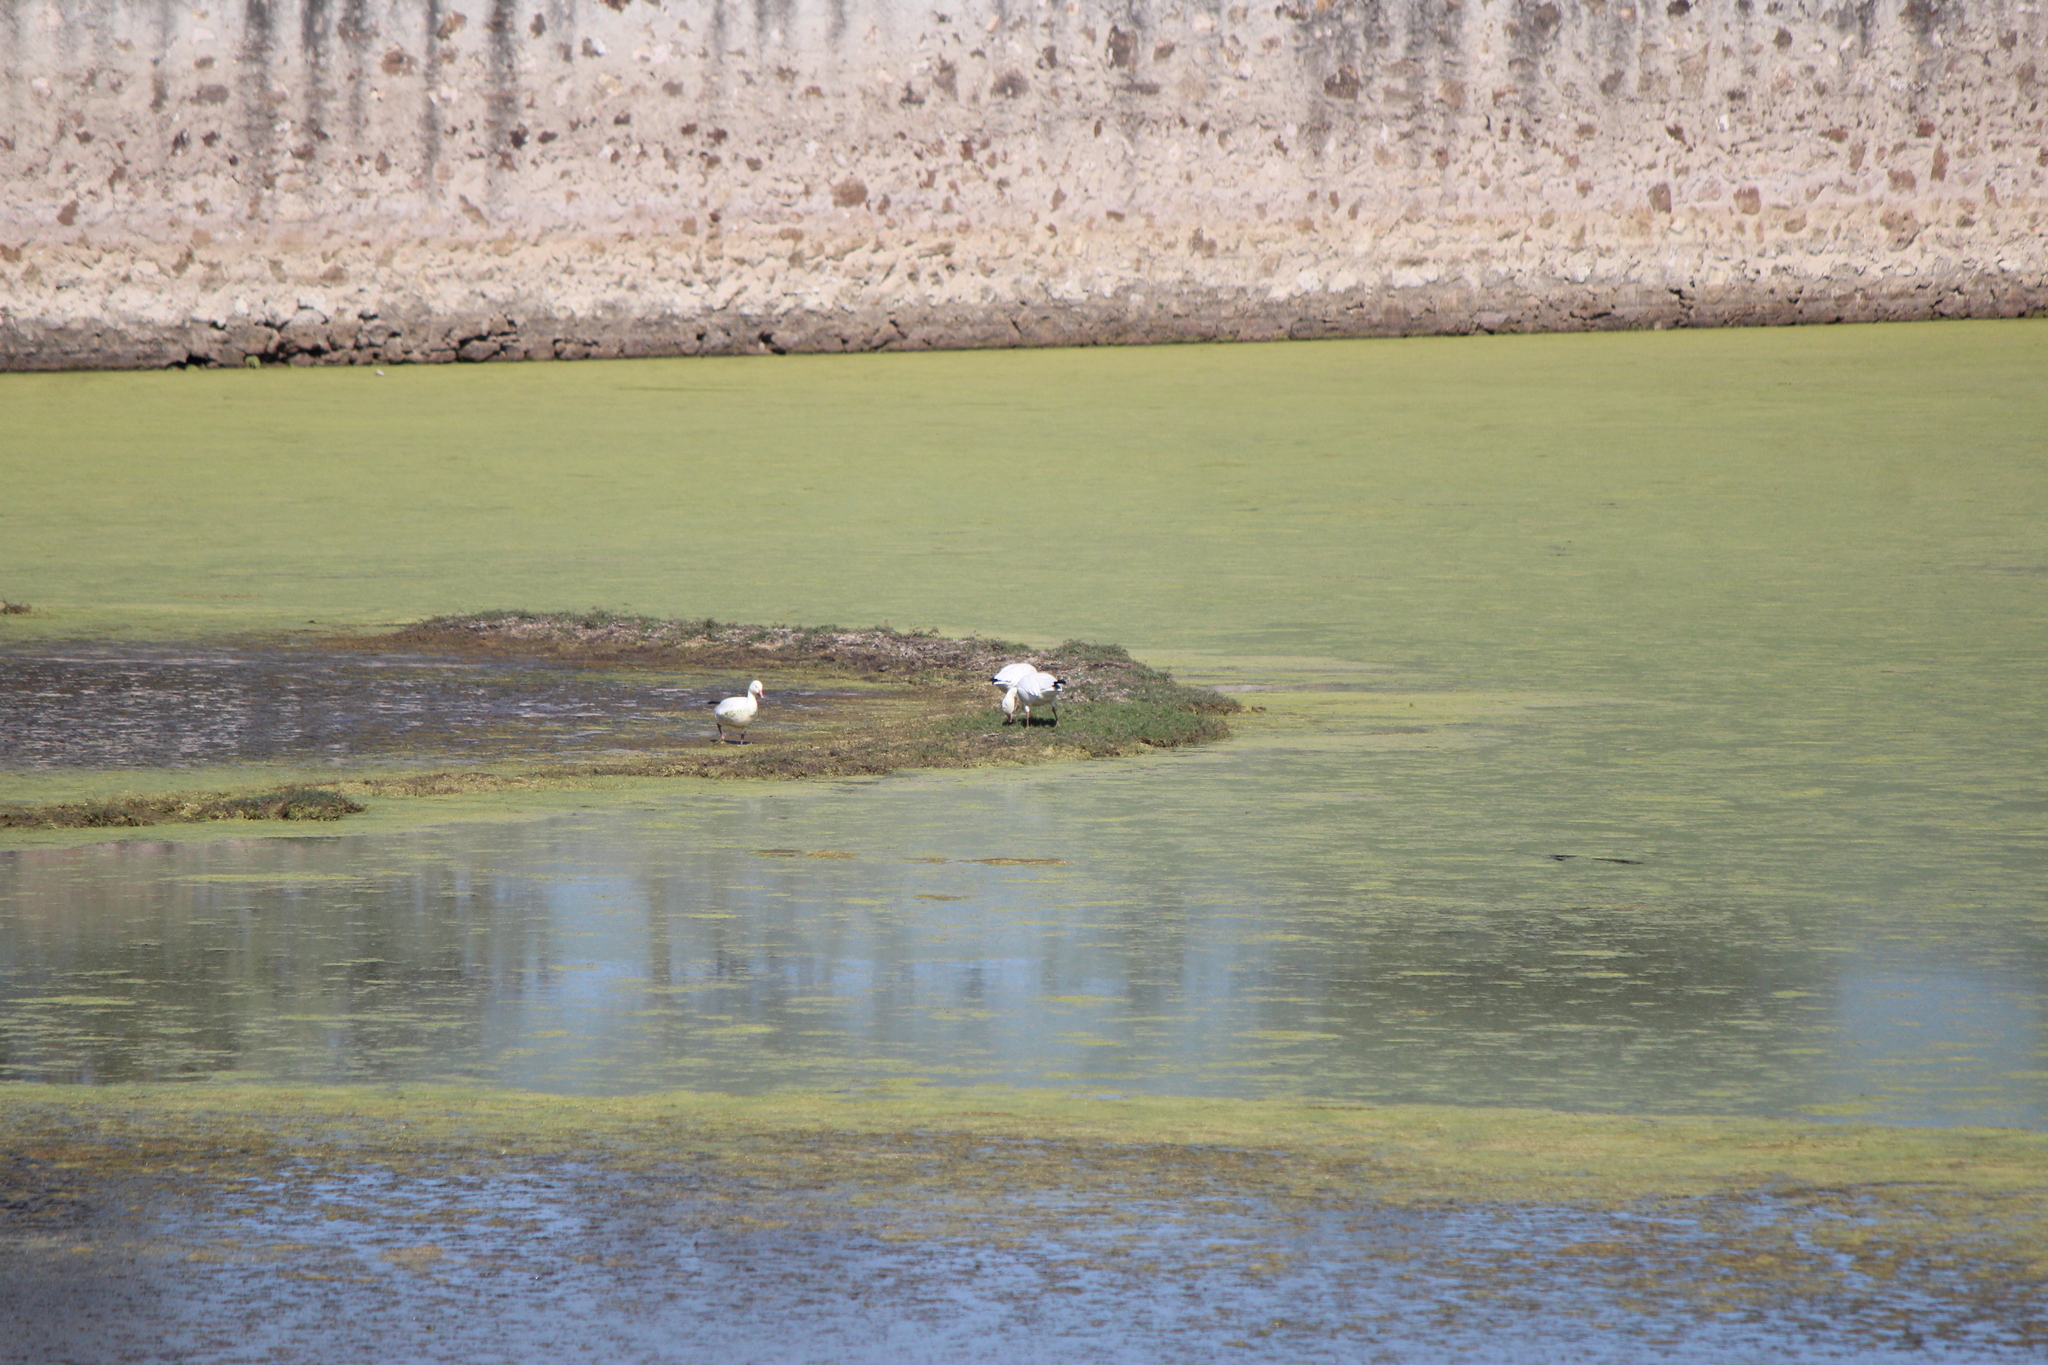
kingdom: Animalia
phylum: Chordata
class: Aves
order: Anseriformes
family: Anatidae
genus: Anser
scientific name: Anser caerulescens
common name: Snow goose
